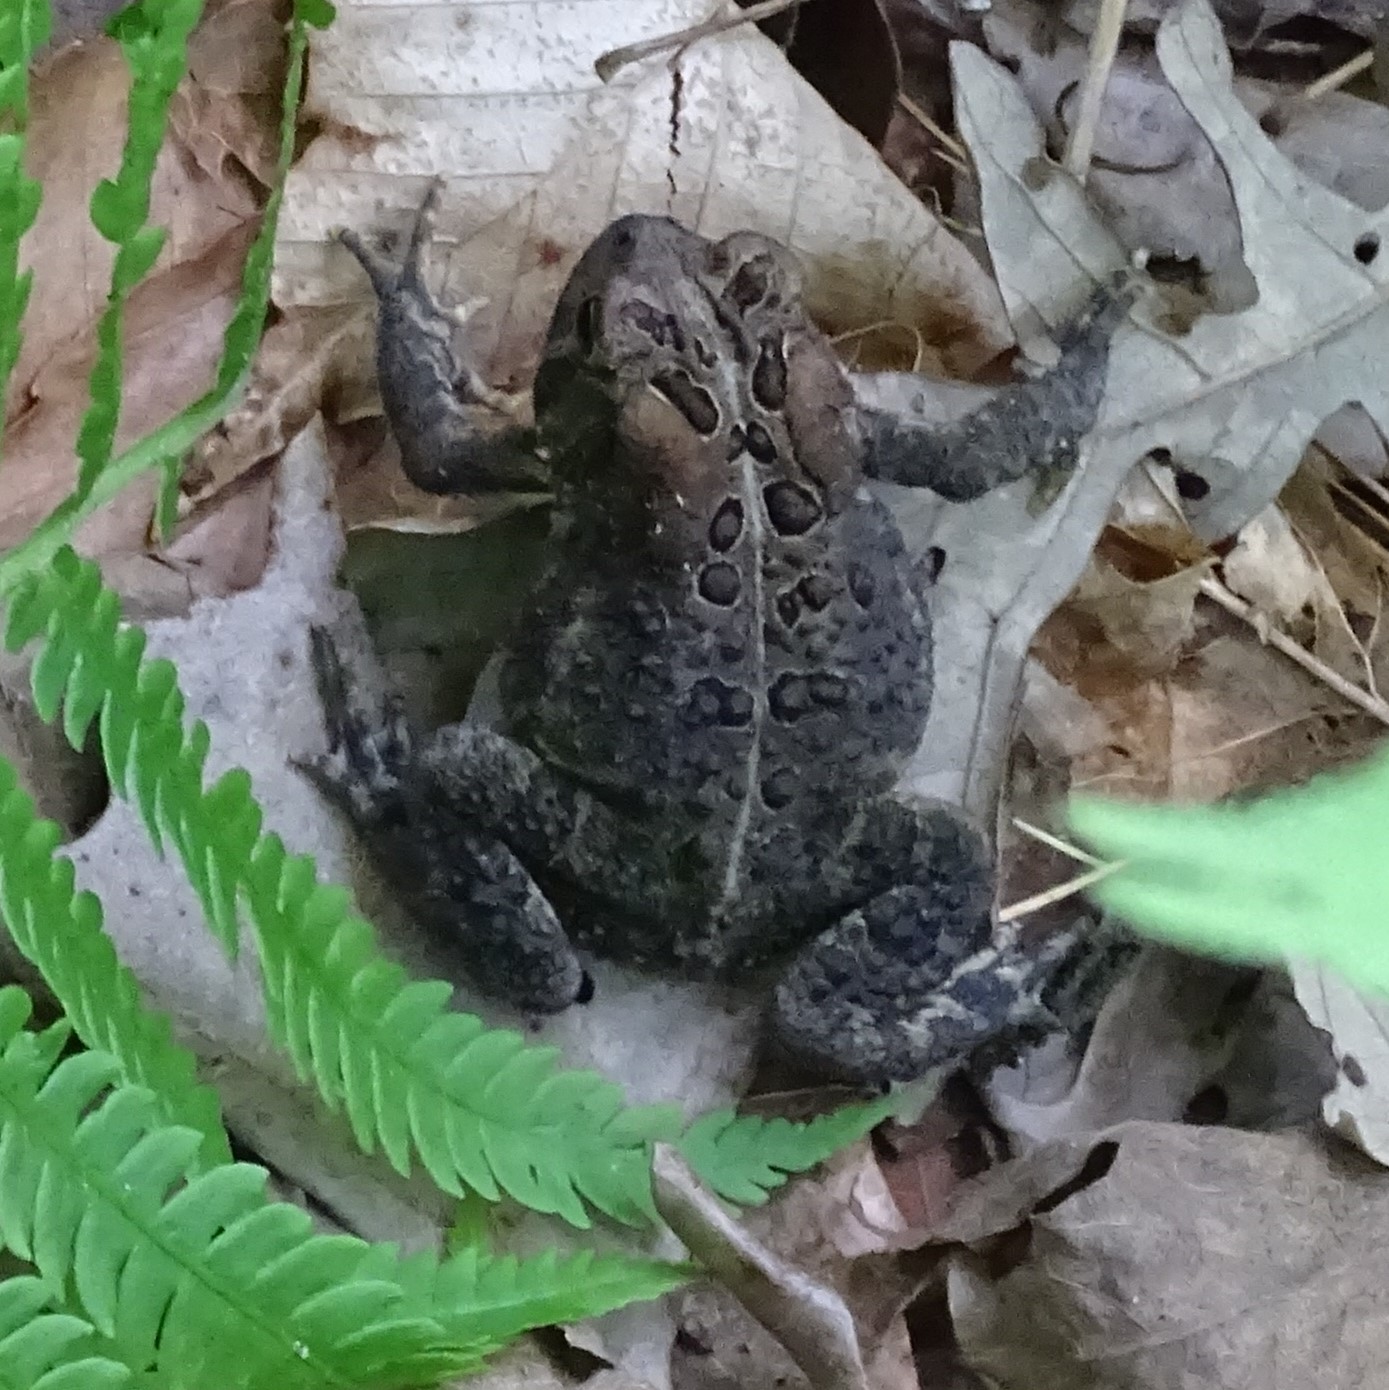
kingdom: Animalia
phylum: Chordata
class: Amphibia
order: Anura
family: Bufonidae
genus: Anaxyrus
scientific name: Anaxyrus americanus
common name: American toad
